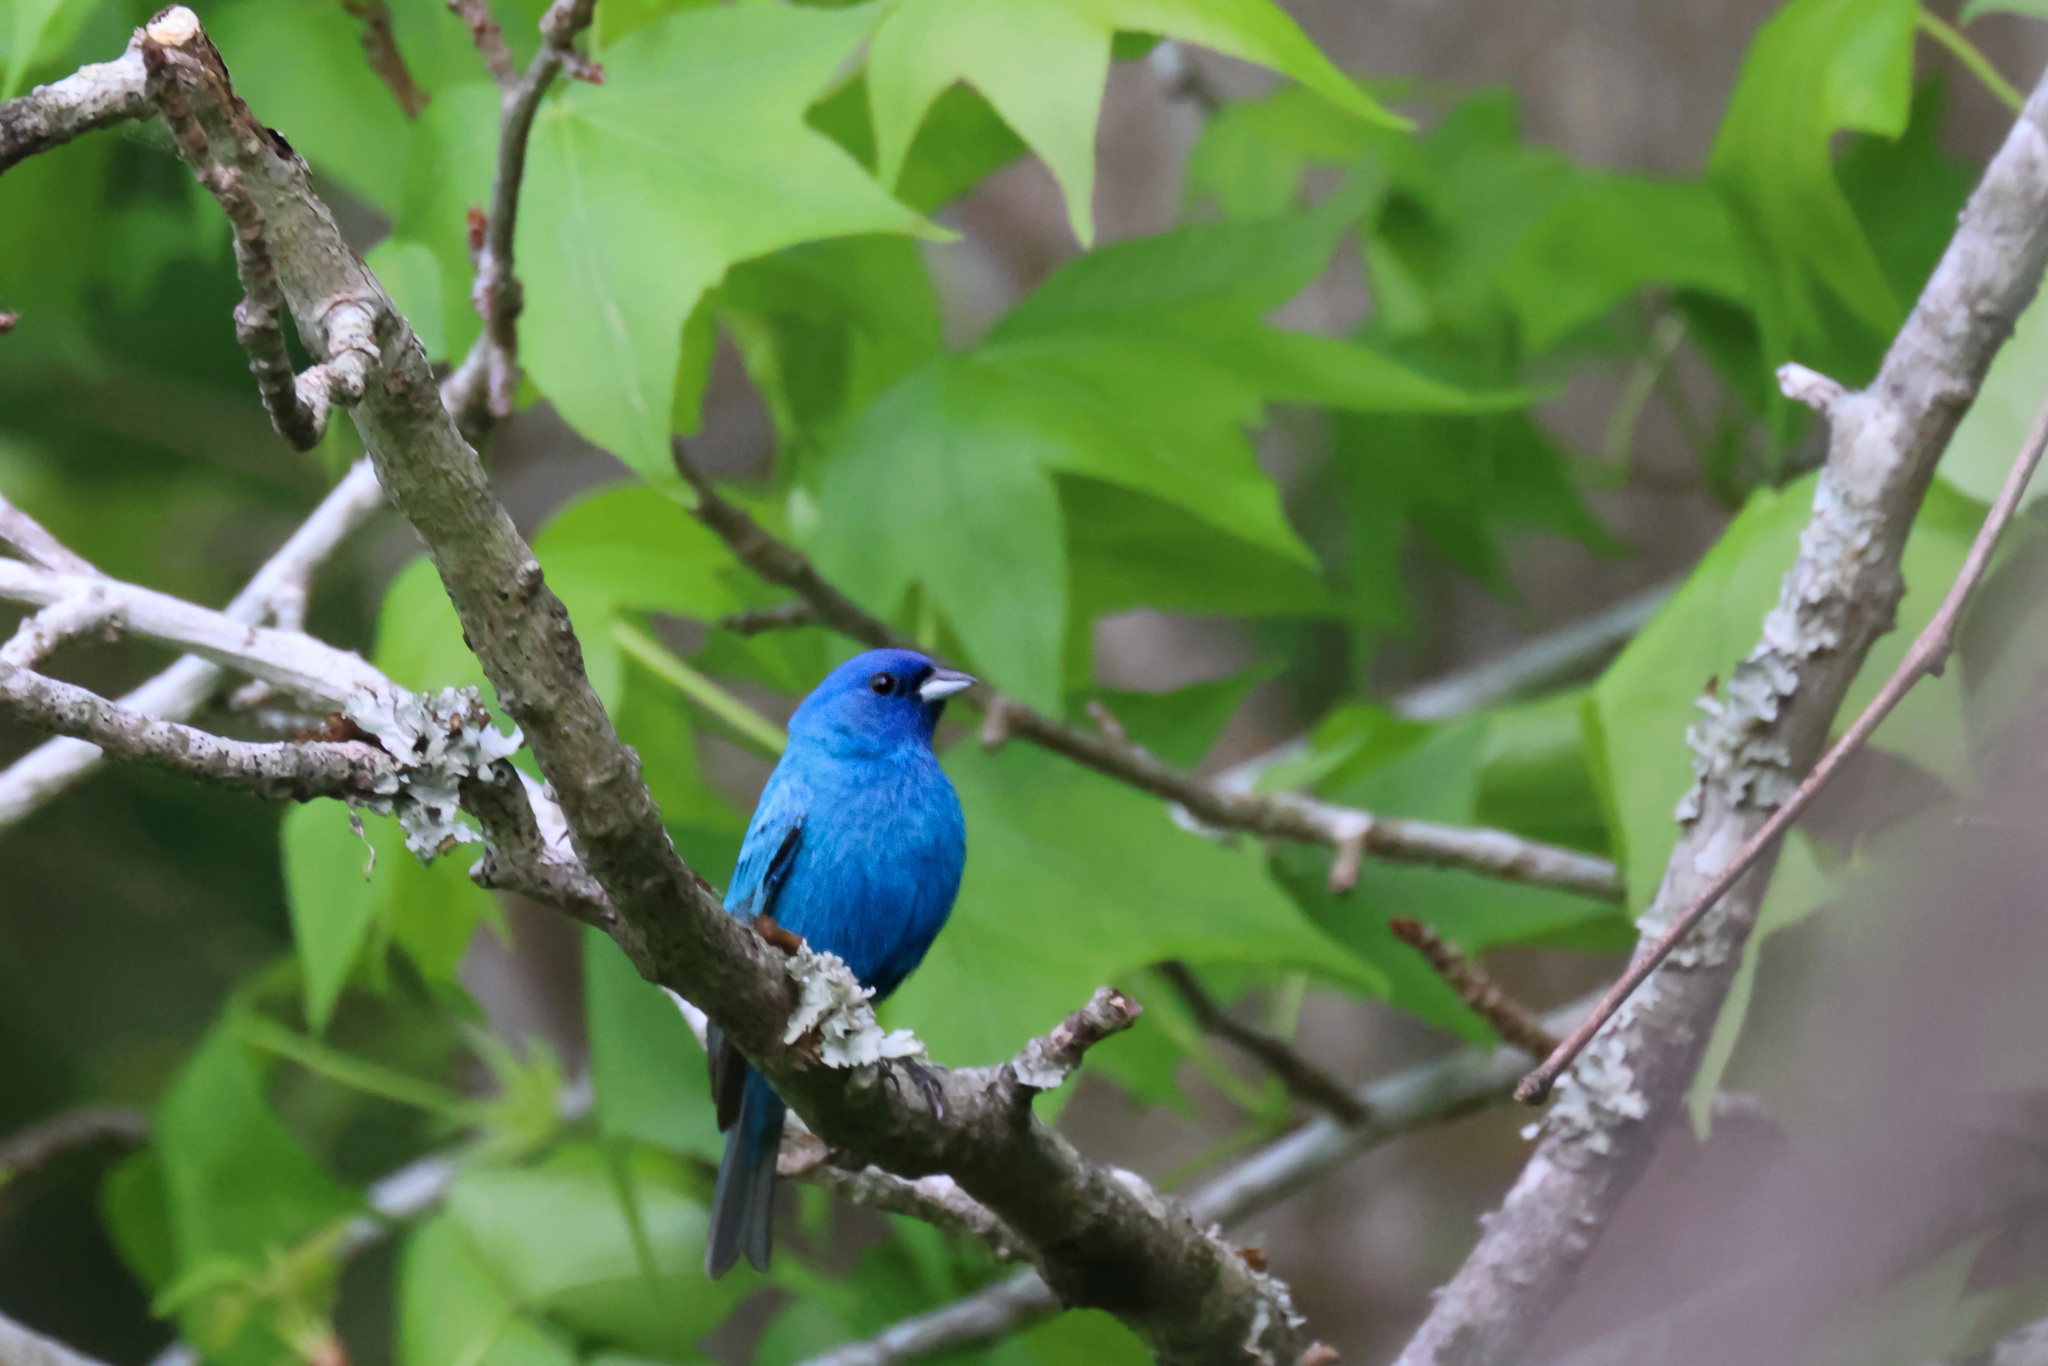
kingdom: Animalia
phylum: Chordata
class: Aves
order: Passeriformes
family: Cardinalidae
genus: Passerina
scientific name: Passerina cyanea
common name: Indigo bunting
